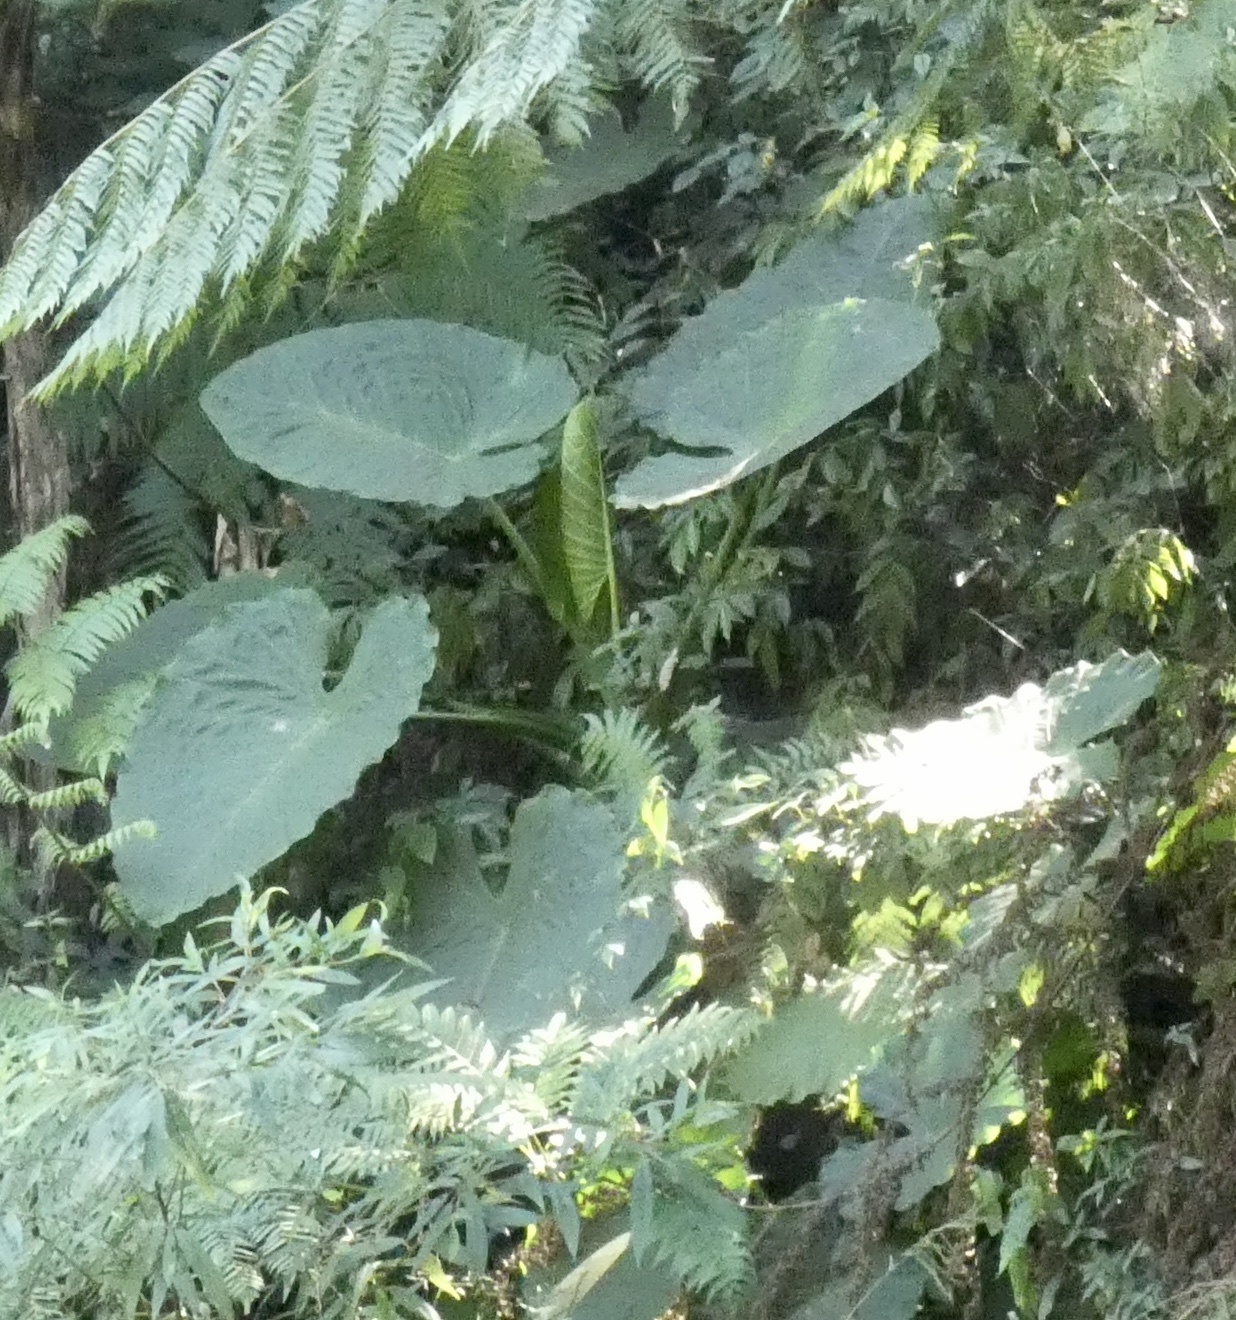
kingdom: Plantae
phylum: Tracheophyta
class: Liliopsida
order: Alismatales
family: Araceae
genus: Alocasia
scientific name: Alocasia odora
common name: Asian taro
